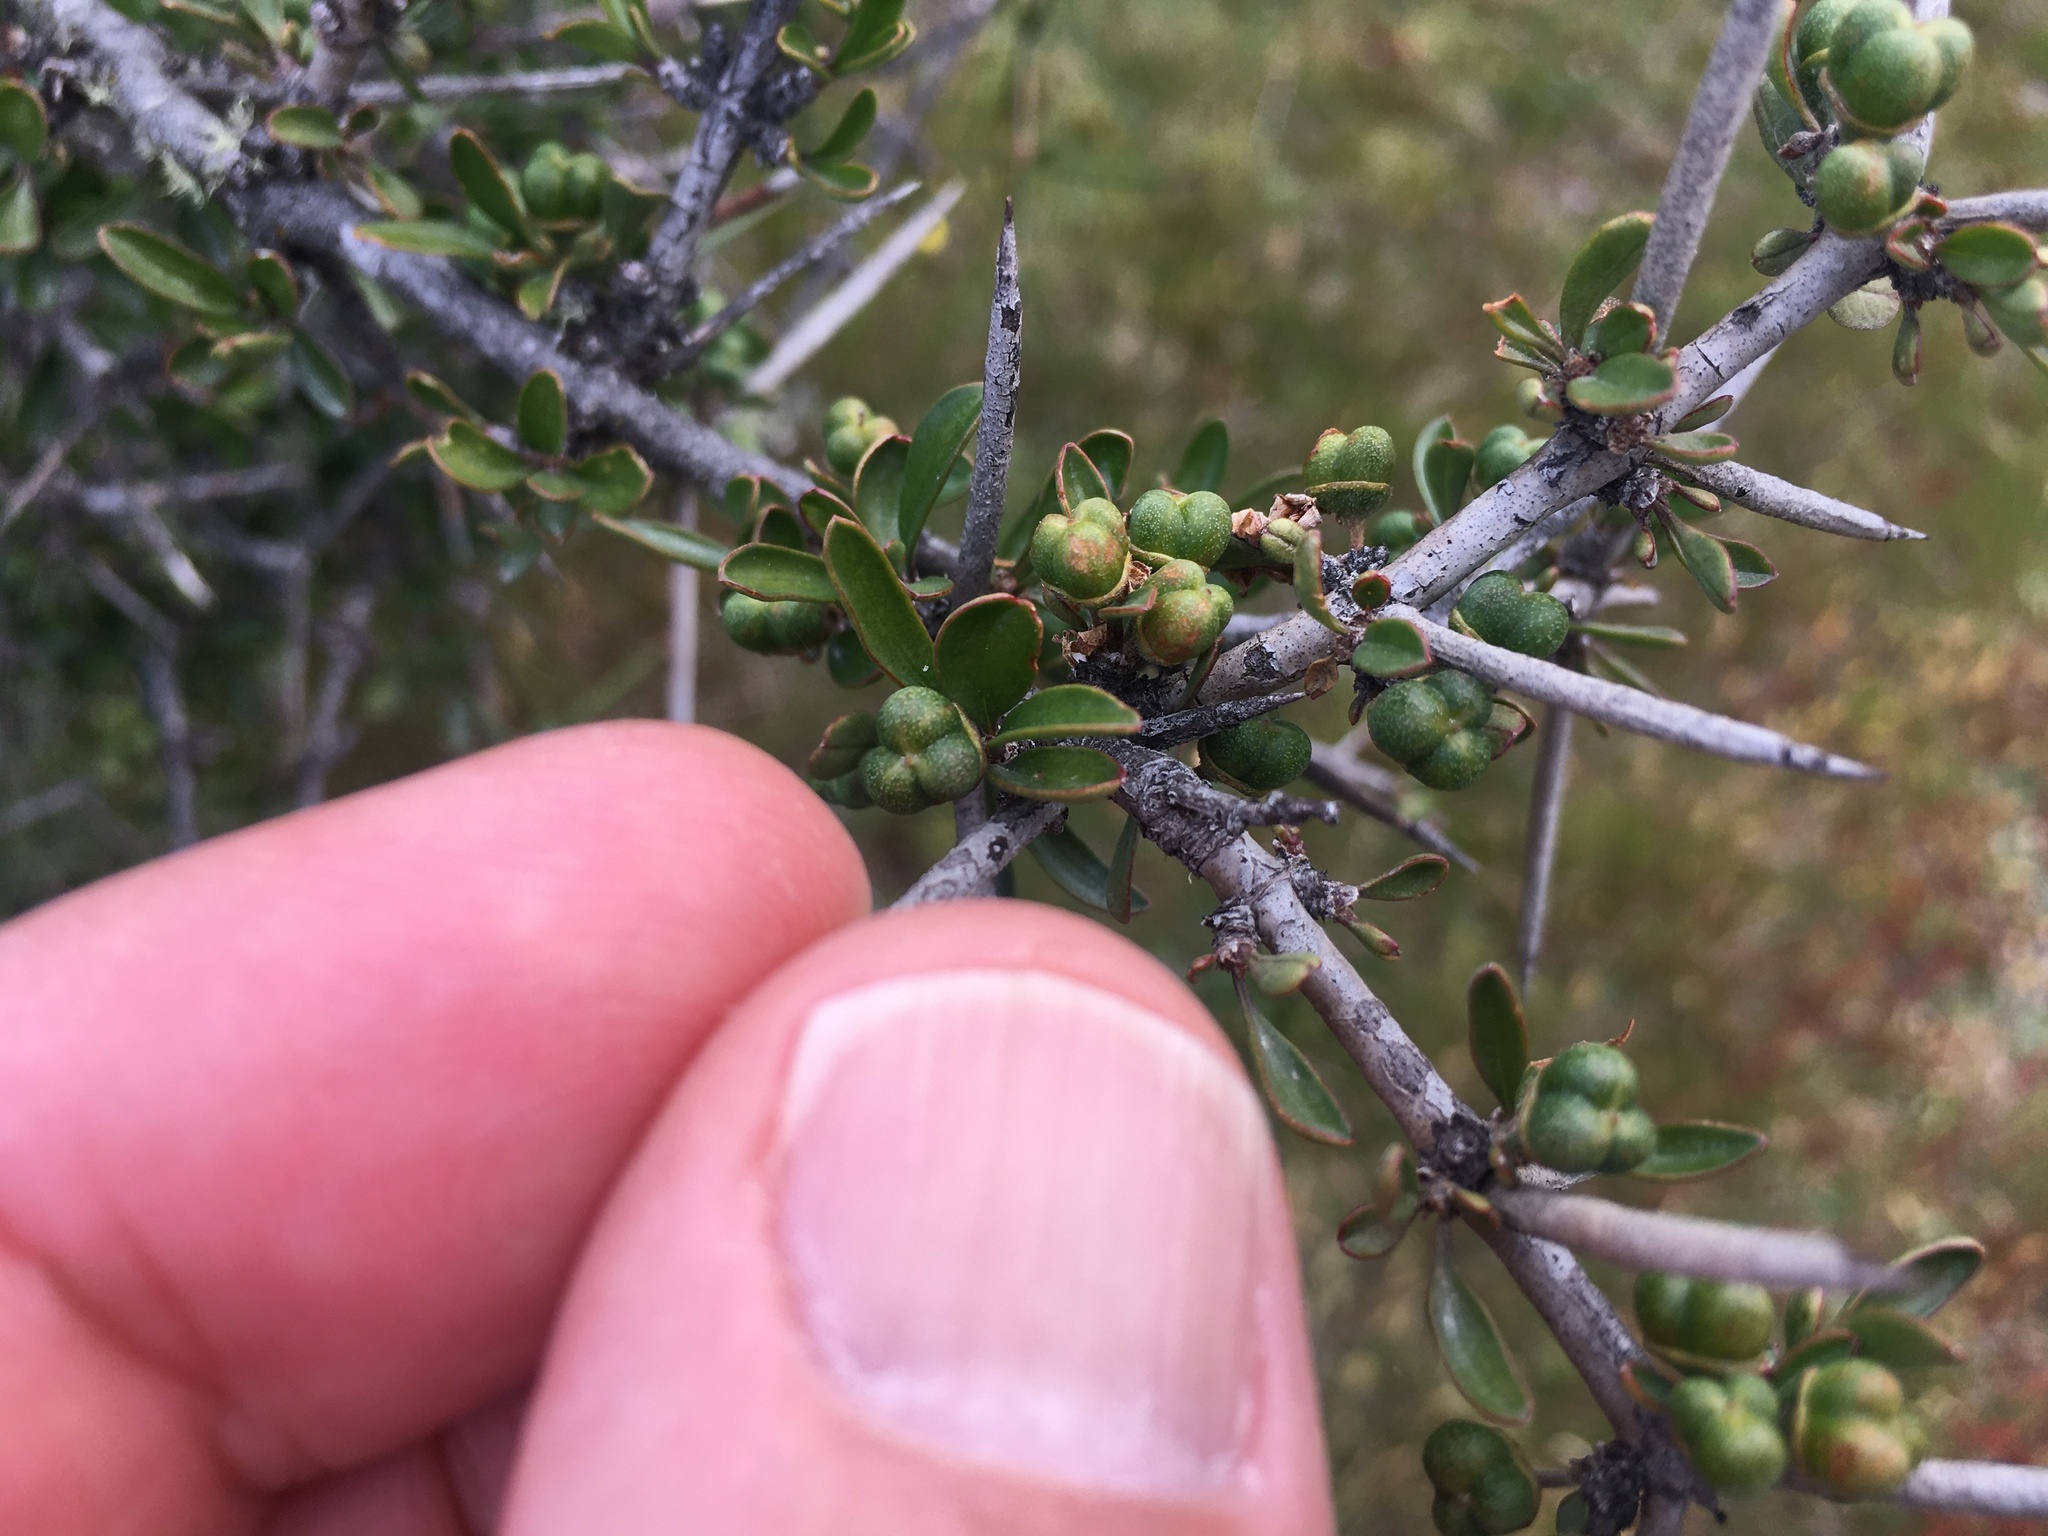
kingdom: Plantae
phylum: Tracheophyta
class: Magnoliopsida
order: Rosales
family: Rhamnaceae
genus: Discaria
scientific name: Discaria toumatou
